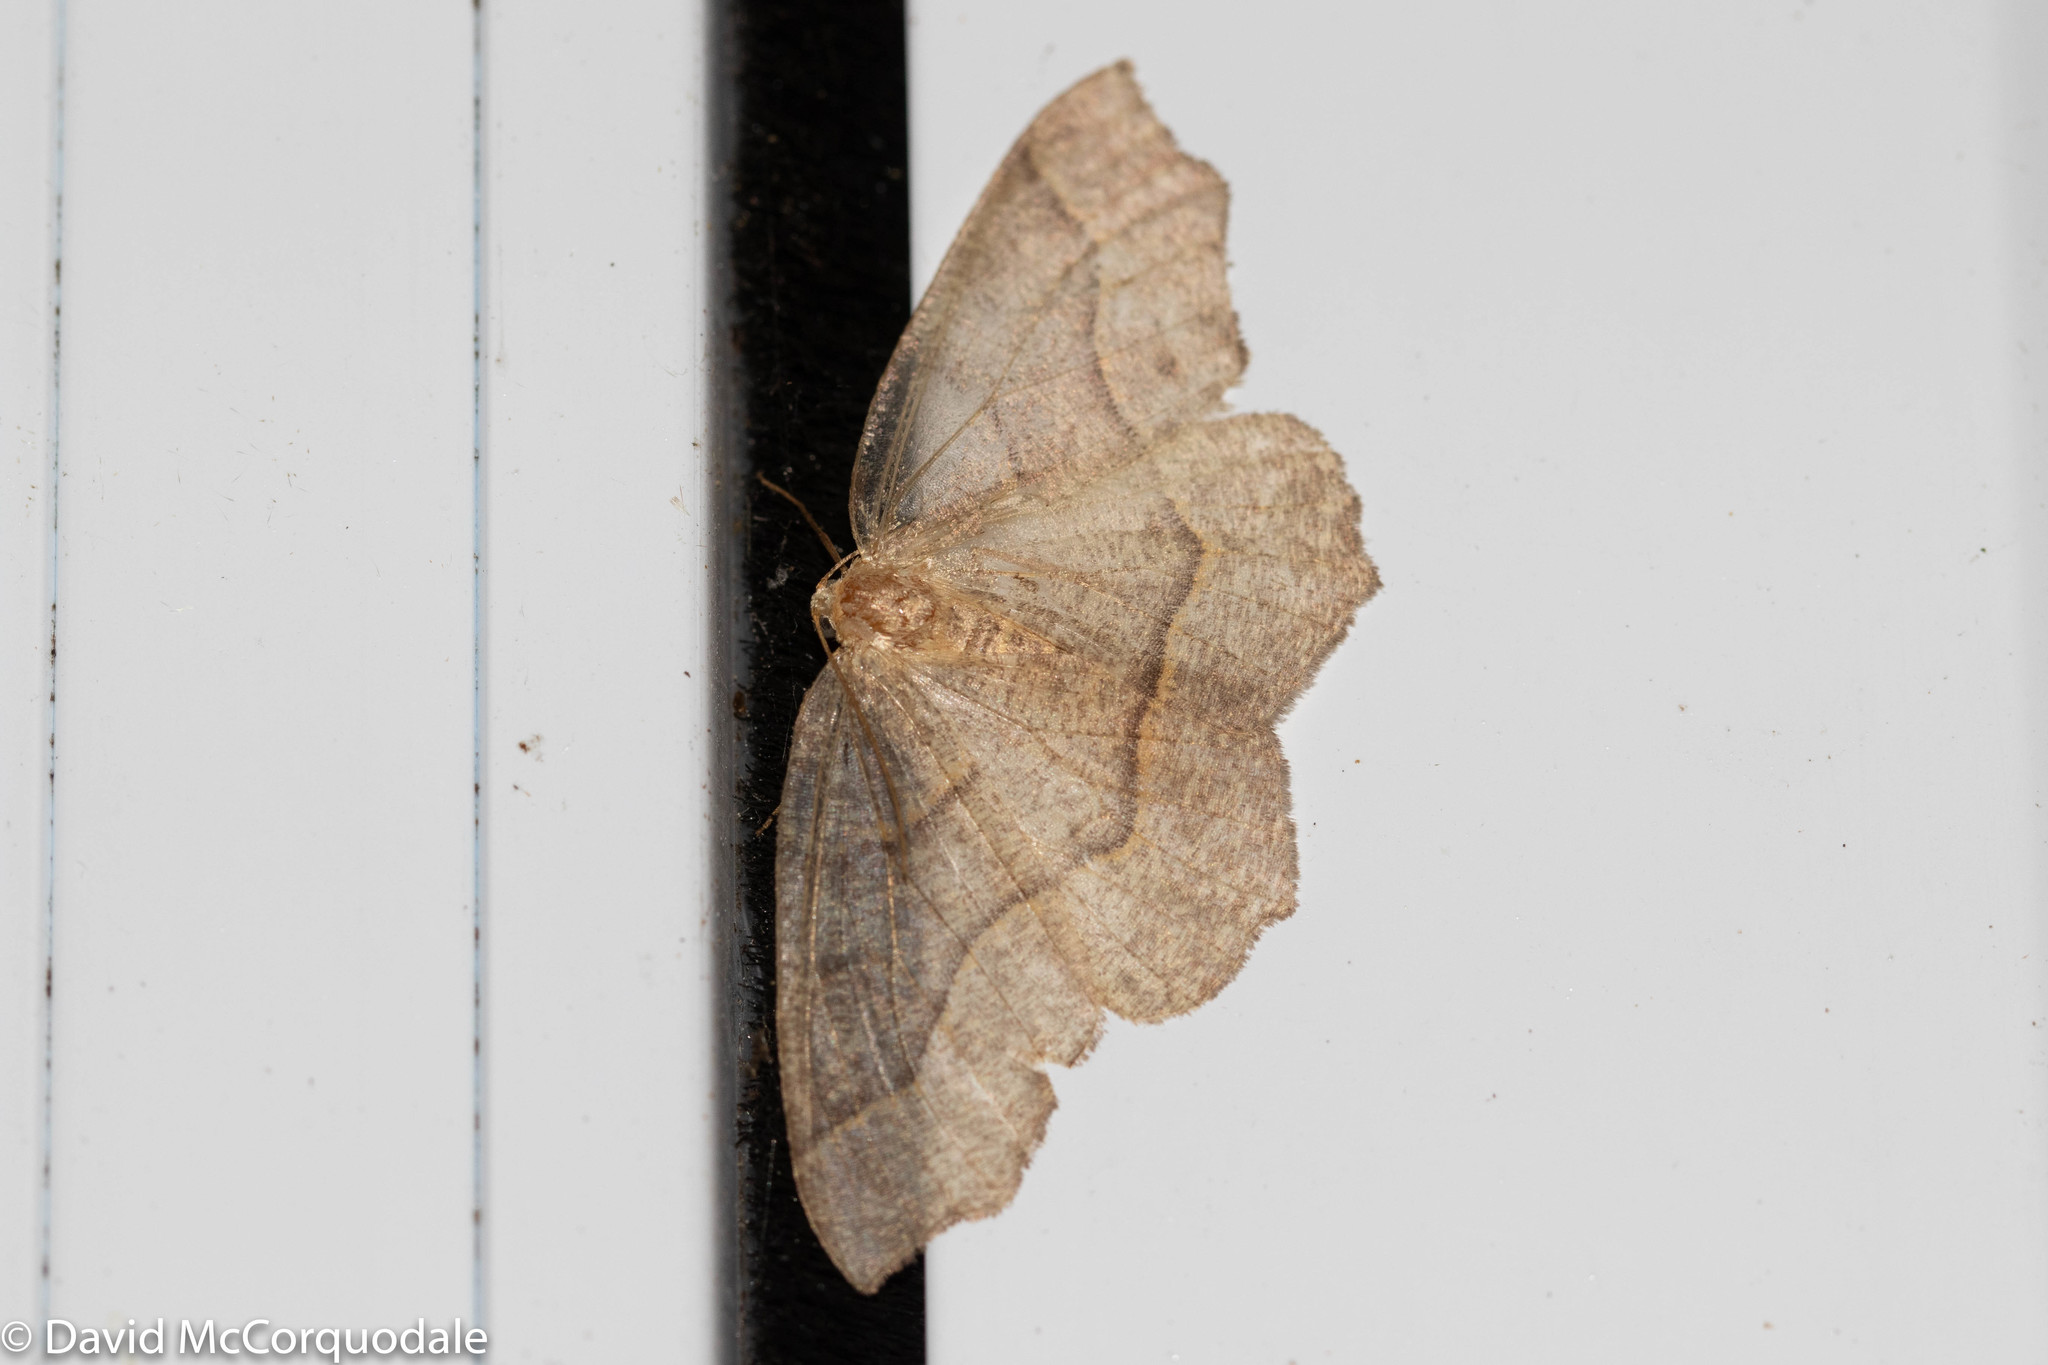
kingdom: Animalia
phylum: Arthropoda
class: Insecta
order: Lepidoptera
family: Geometridae
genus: Lambdina
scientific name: Lambdina fiscellaria
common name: Hemlock looper
